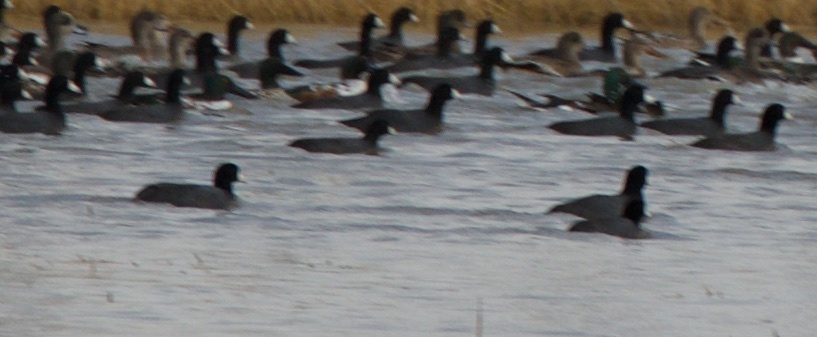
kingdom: Animalia
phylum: Chordata
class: Aves
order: Gruiformes
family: Rallidae
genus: Fulica
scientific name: Fulica americana
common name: American coot
